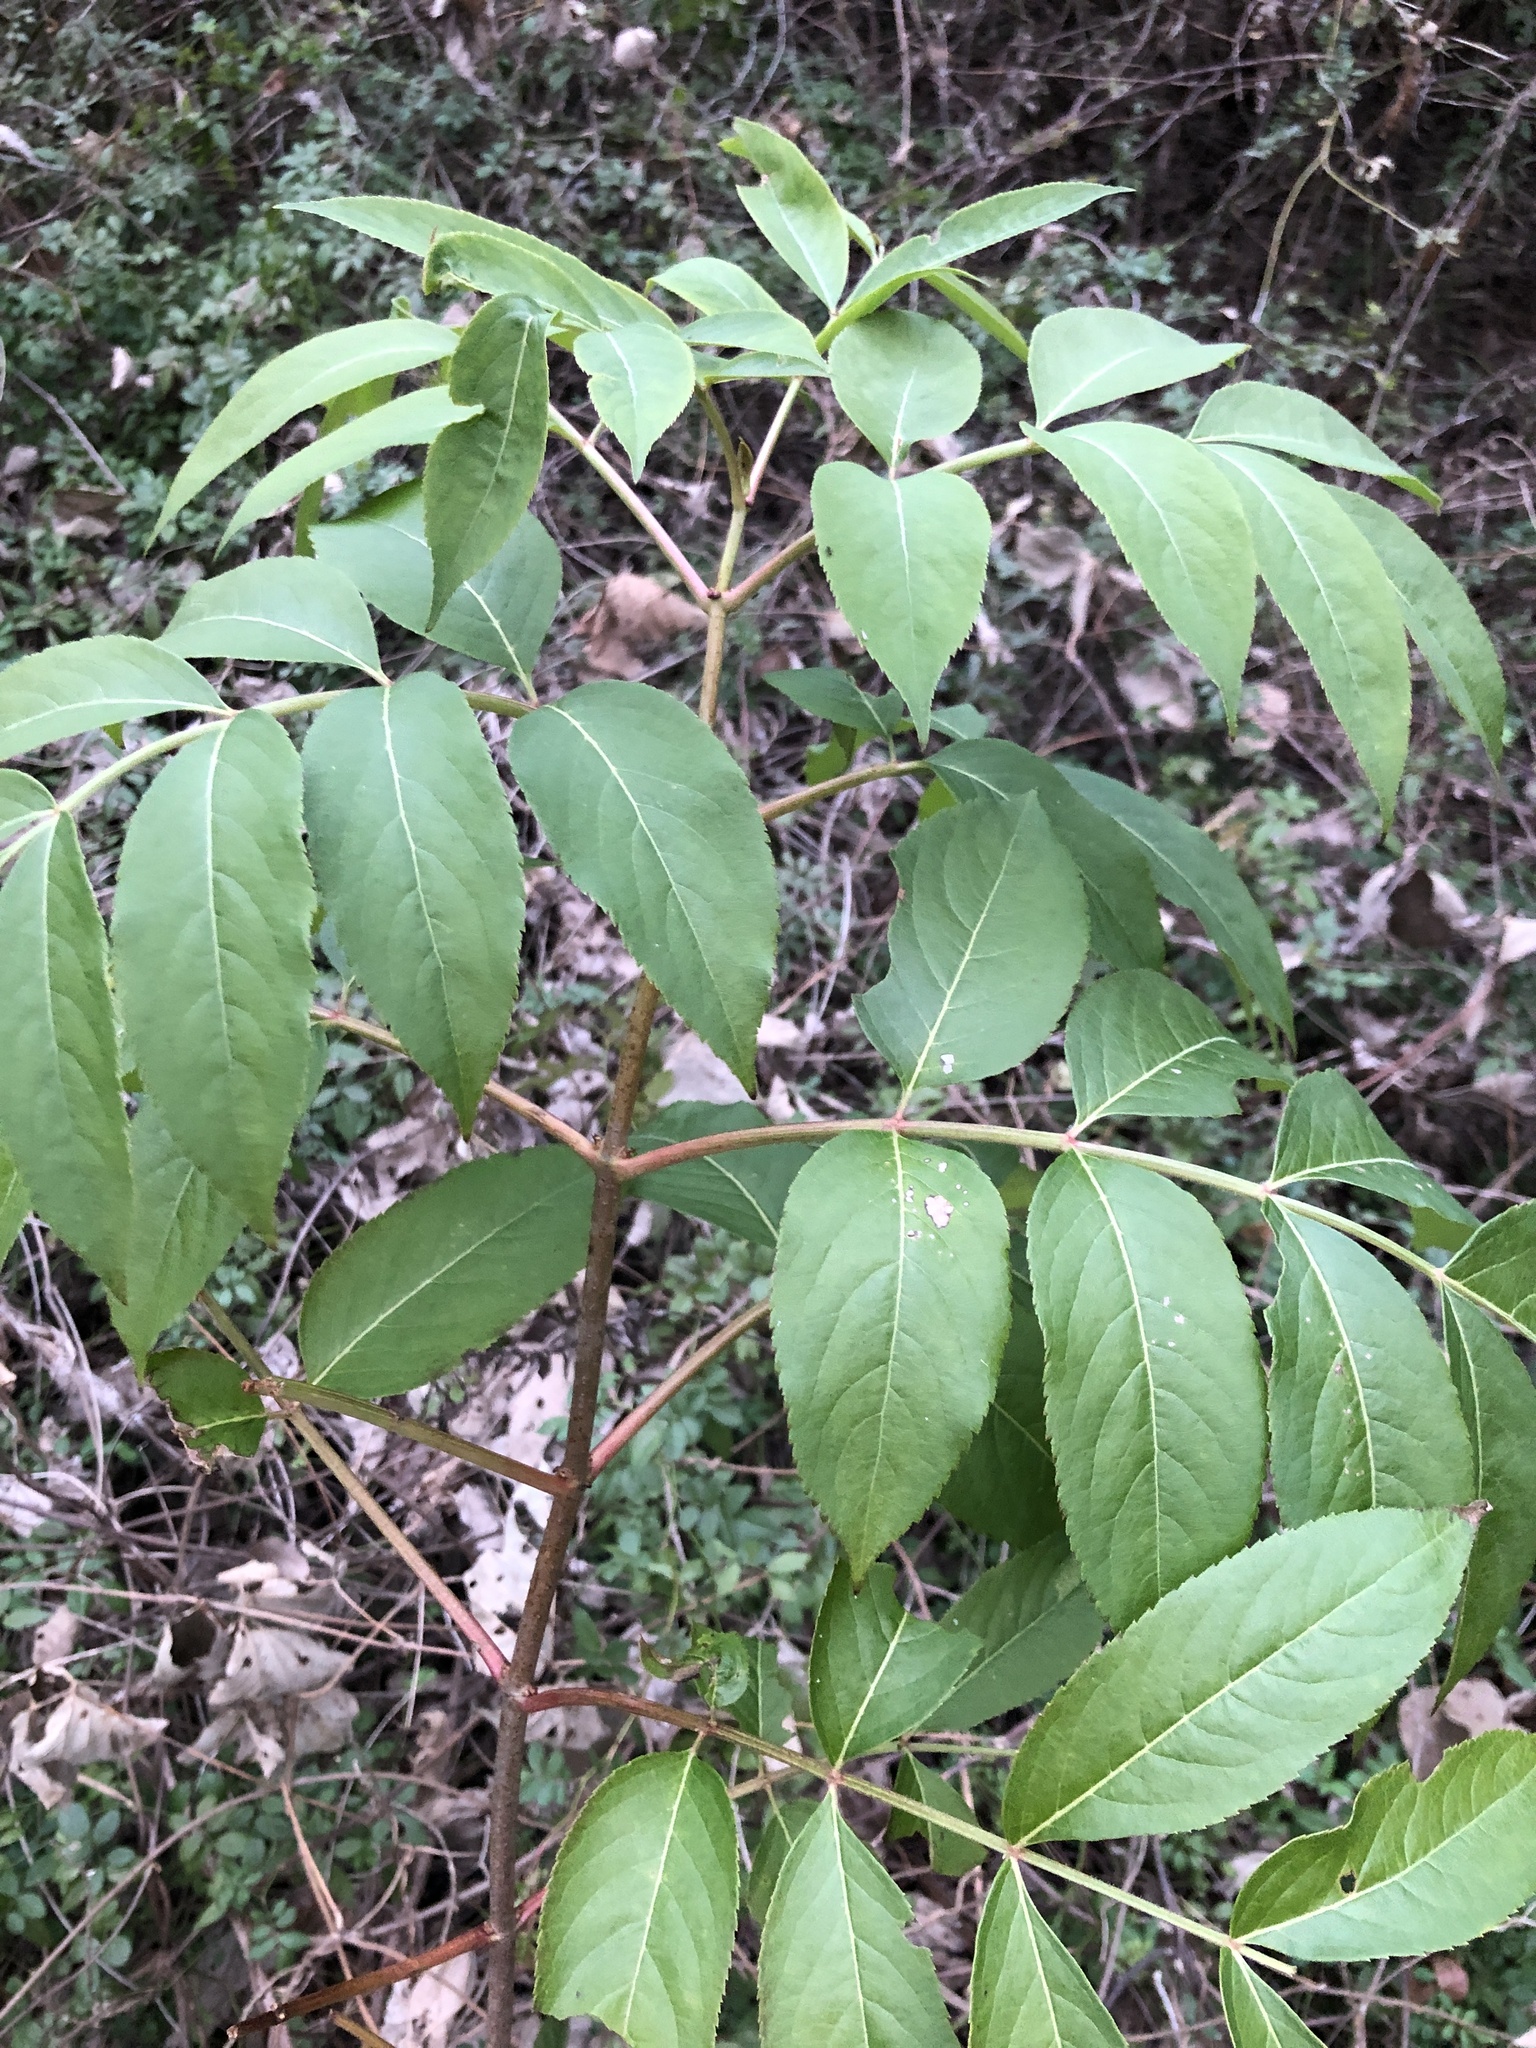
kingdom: Plantae
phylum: Tracheophyta
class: Magnoliopsida
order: Dipsacales
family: Viburnaceae
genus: Sambucus
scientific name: Sambucus canadensis
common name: American elder
